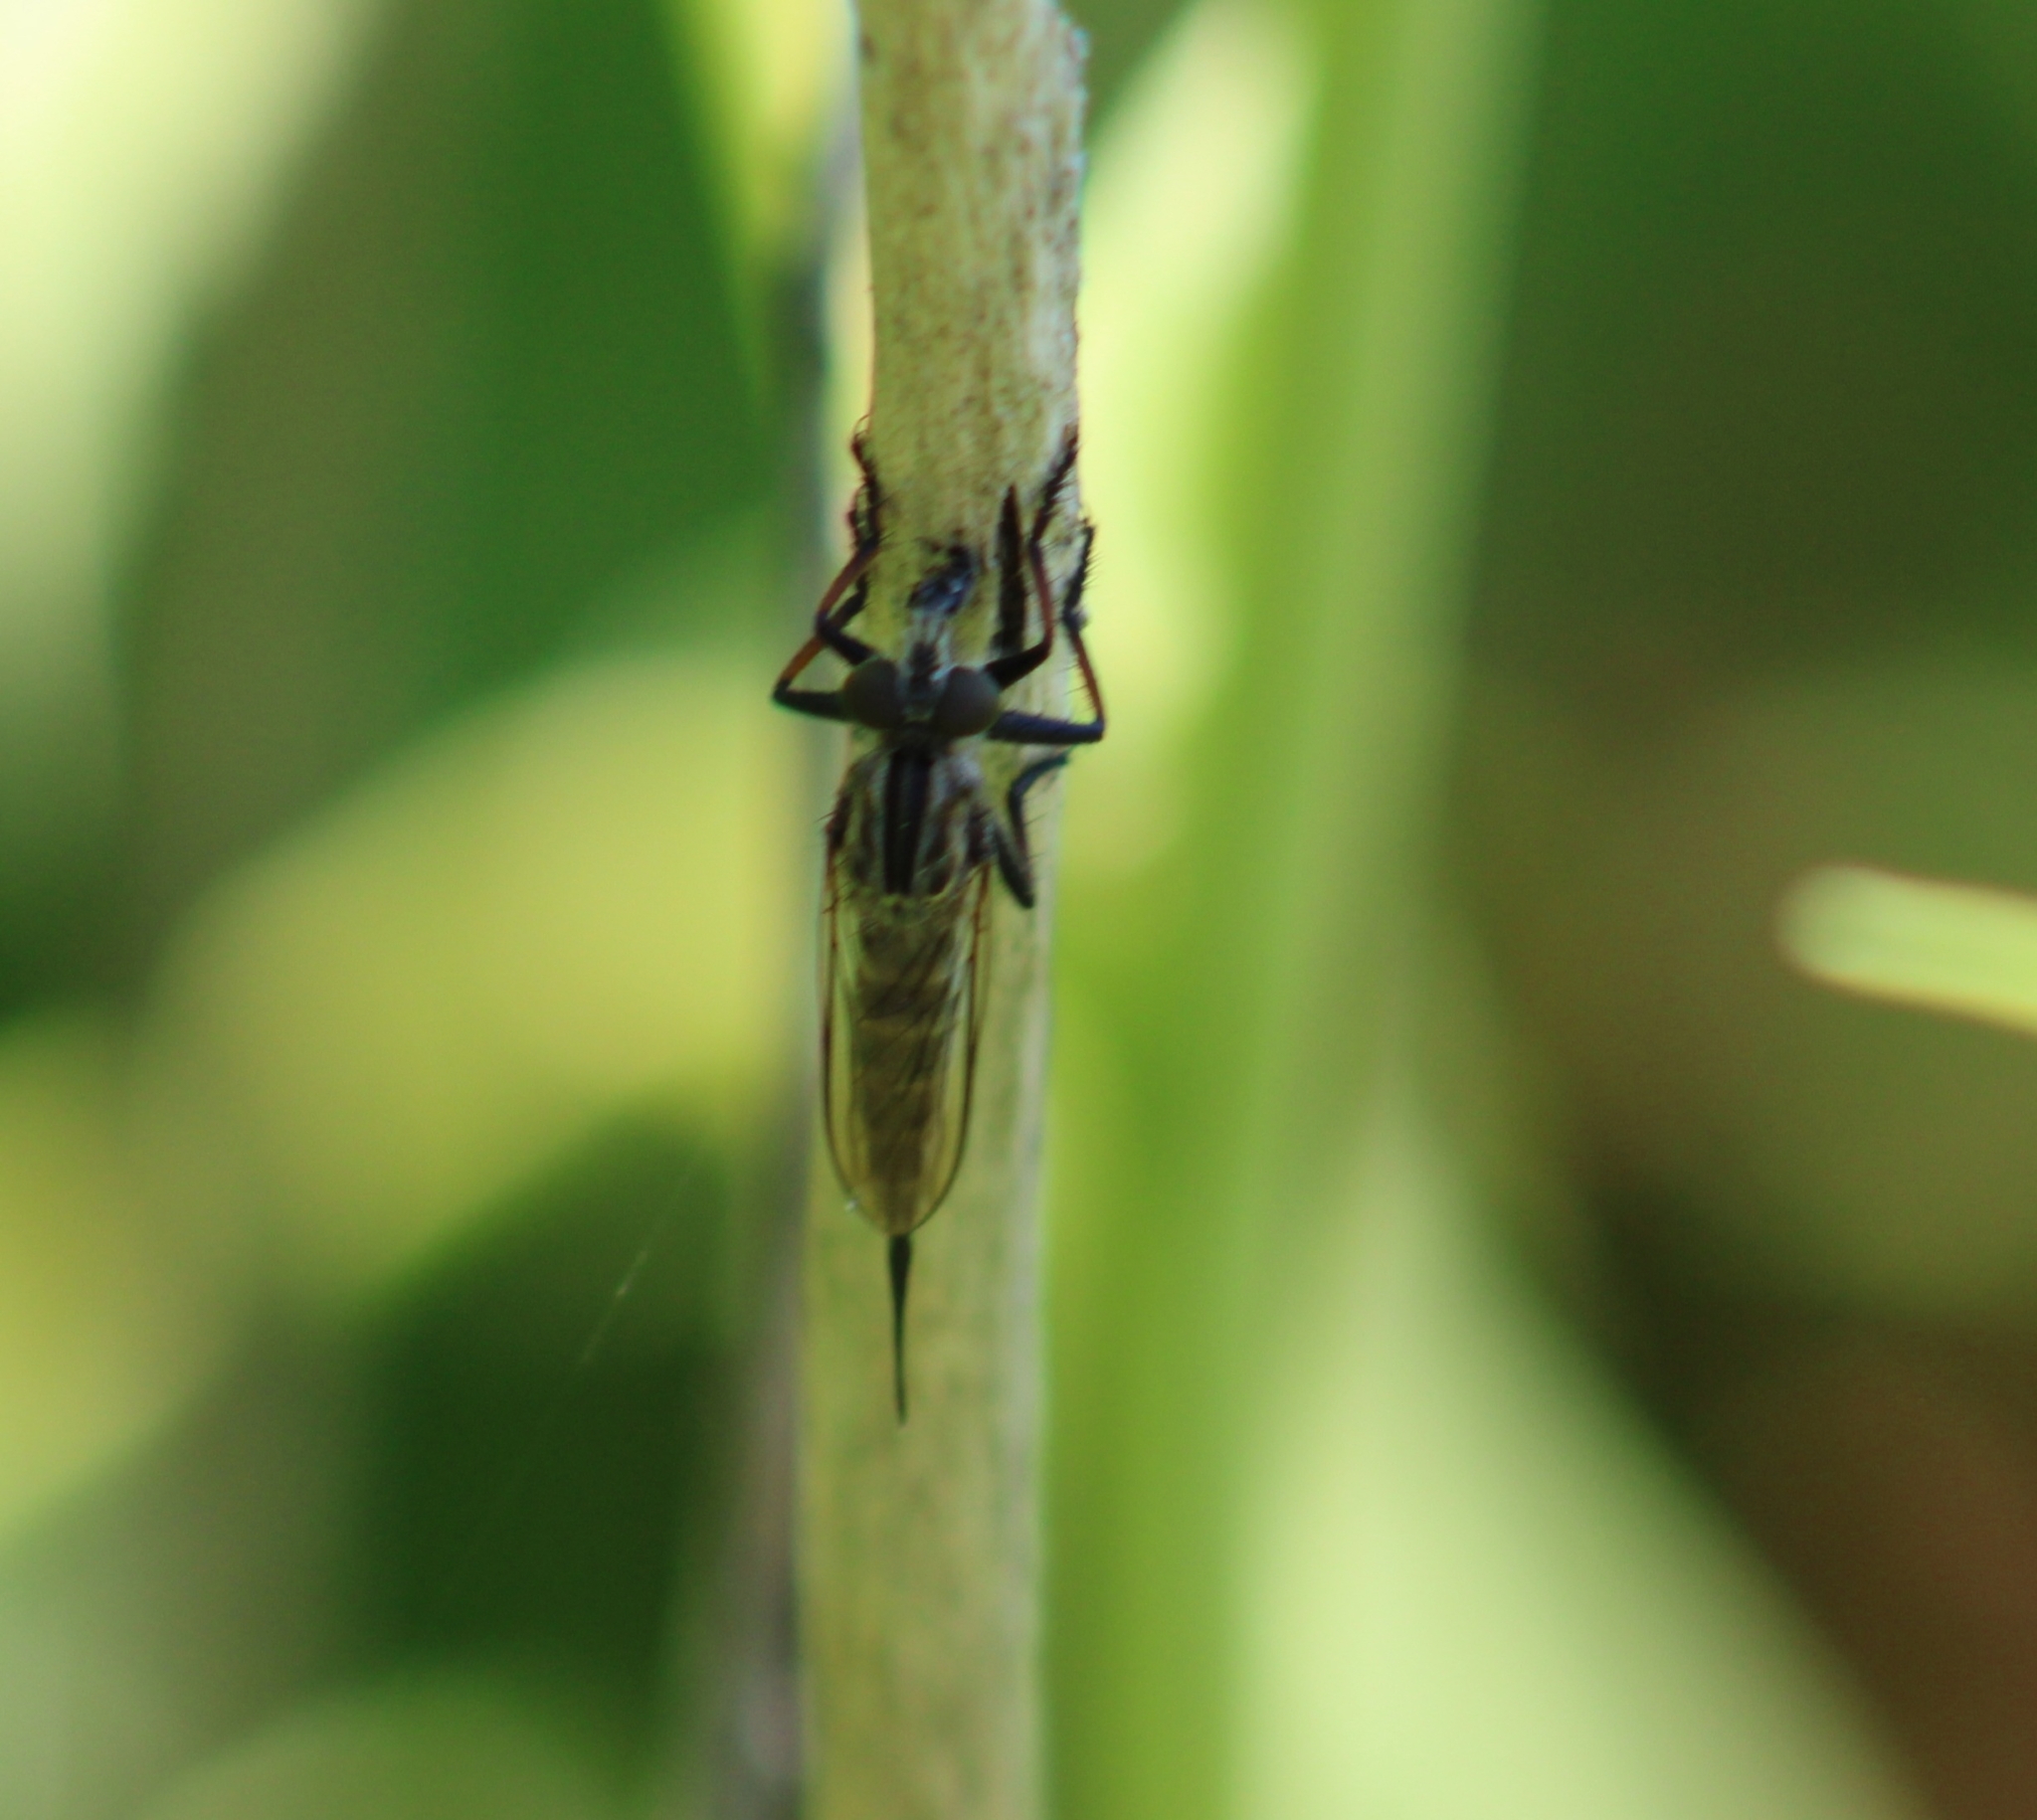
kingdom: Animalia
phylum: Arthropoda
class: Insecta
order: Diptera
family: Asilidae
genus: Efferia
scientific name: Efferia aestuans
